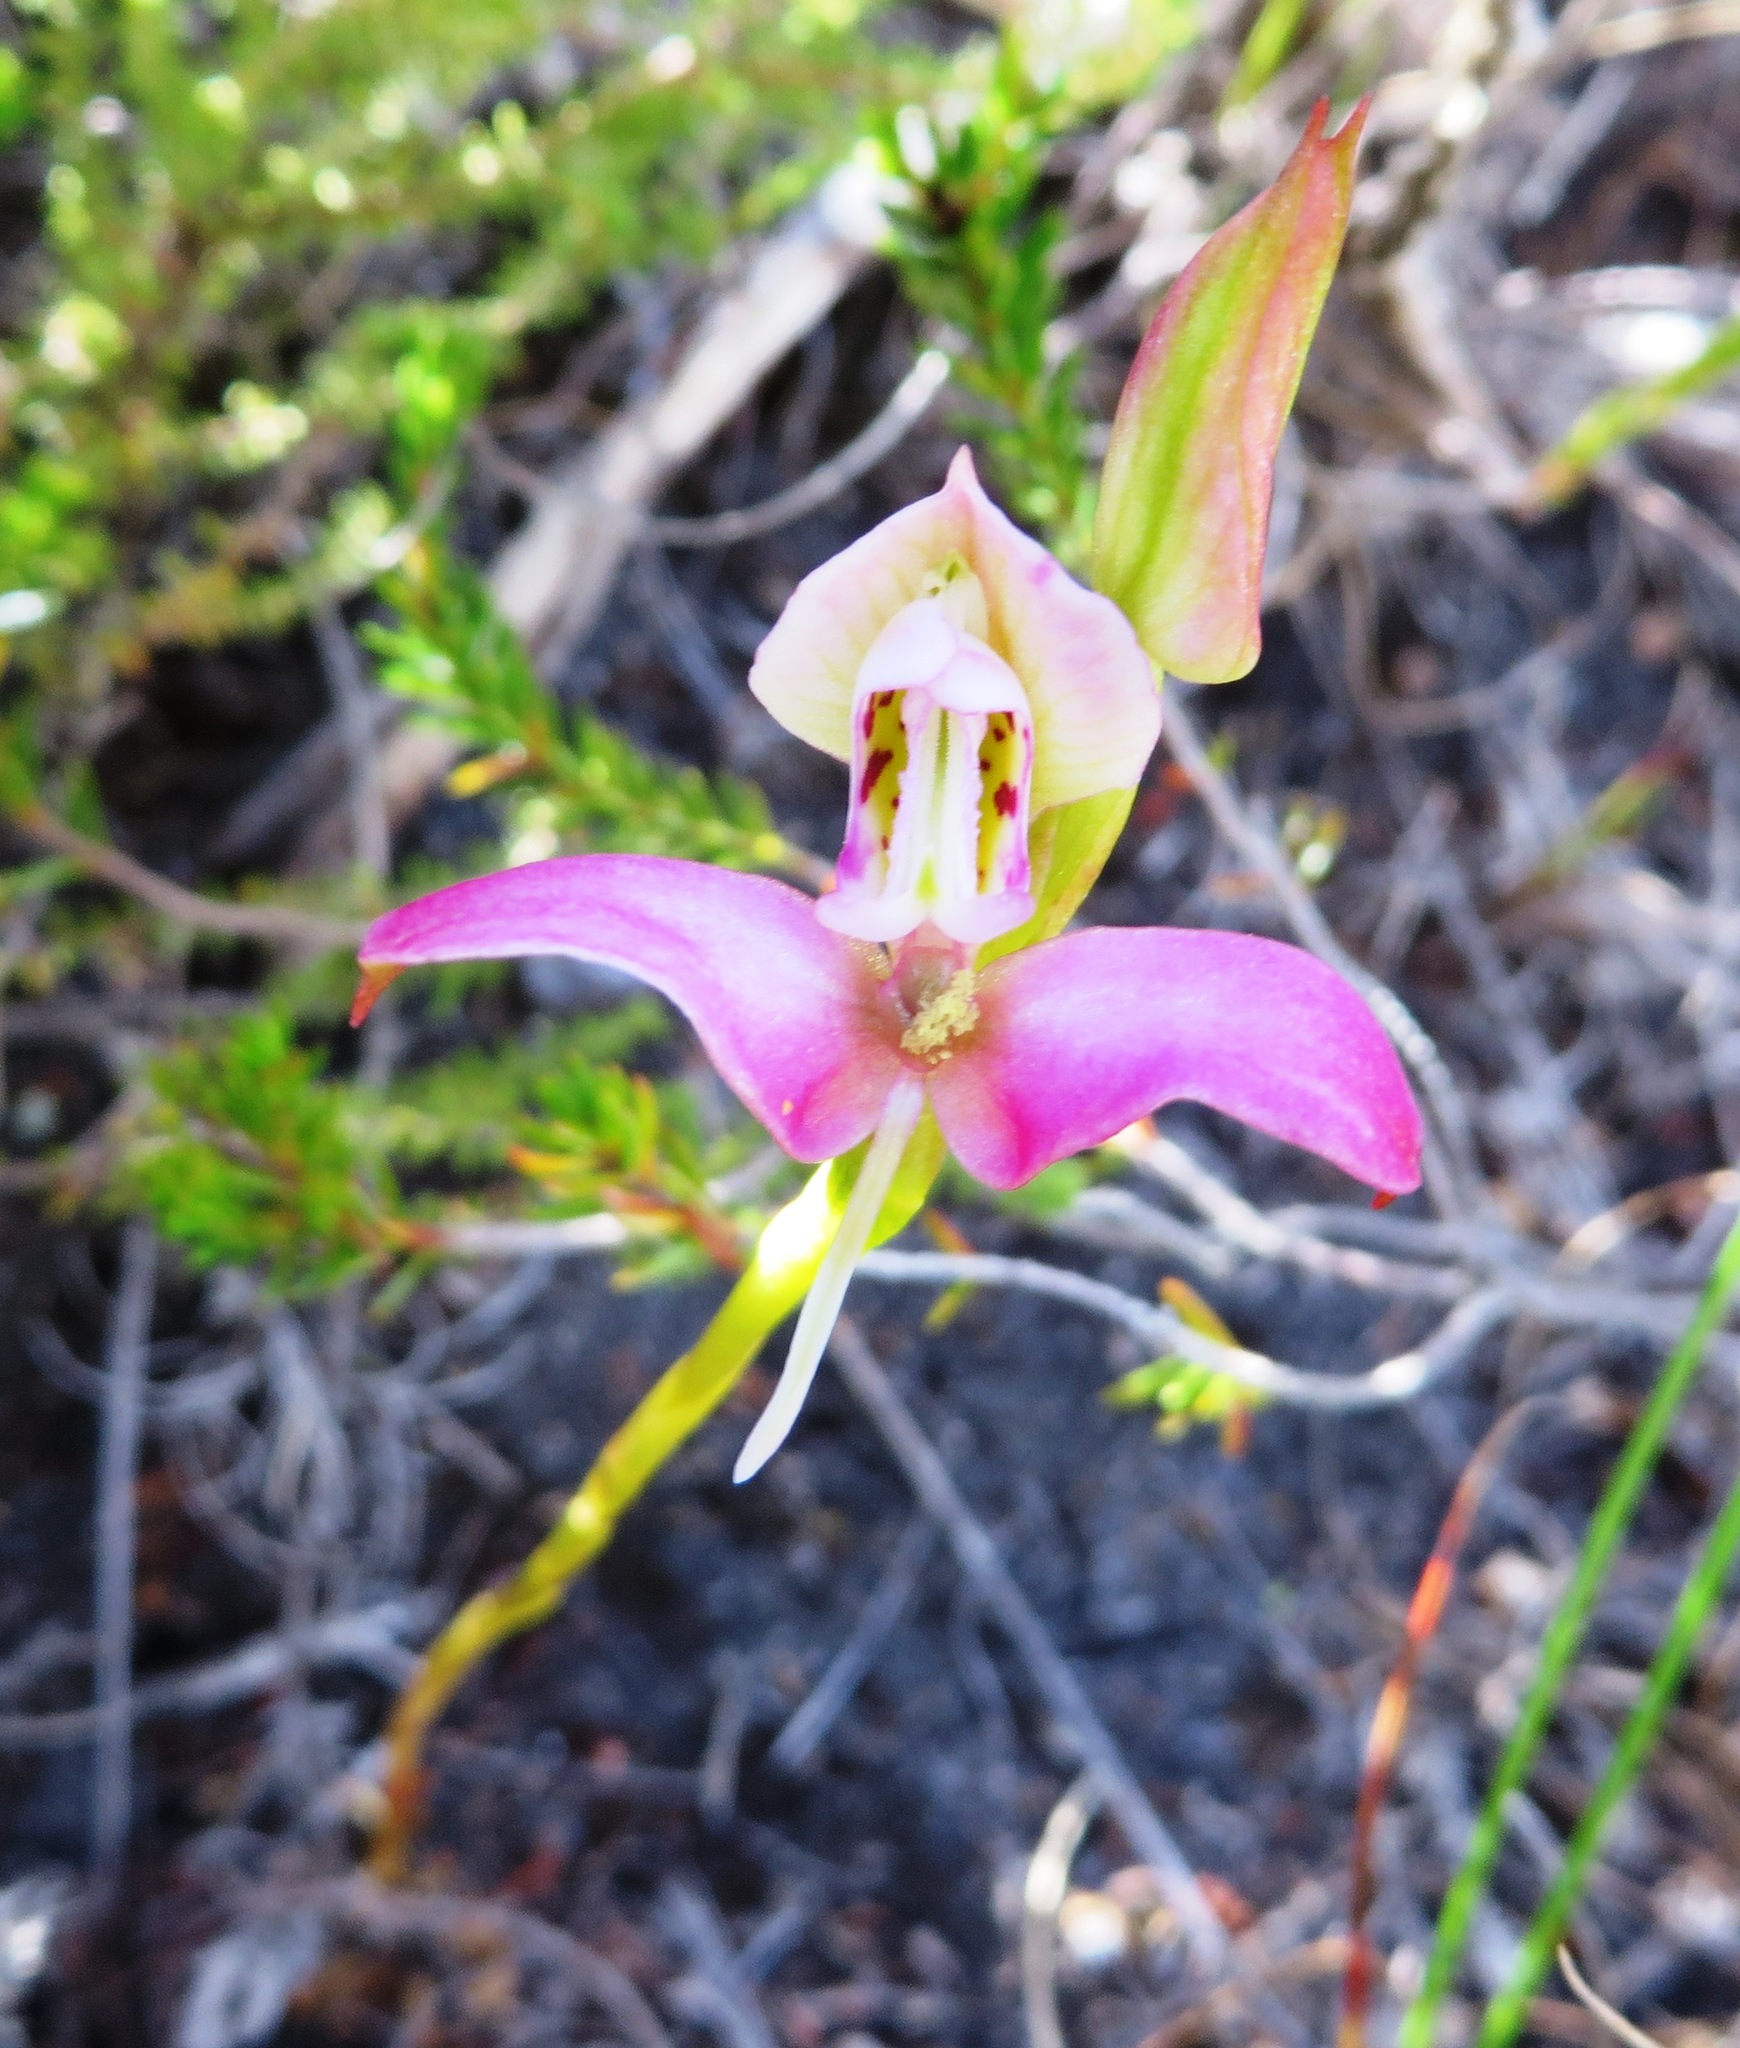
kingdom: Plantae
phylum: Tracheophyta
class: Liliopsida
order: Asparagales
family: Orchidaceae
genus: Disa
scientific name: Disa filicornis
